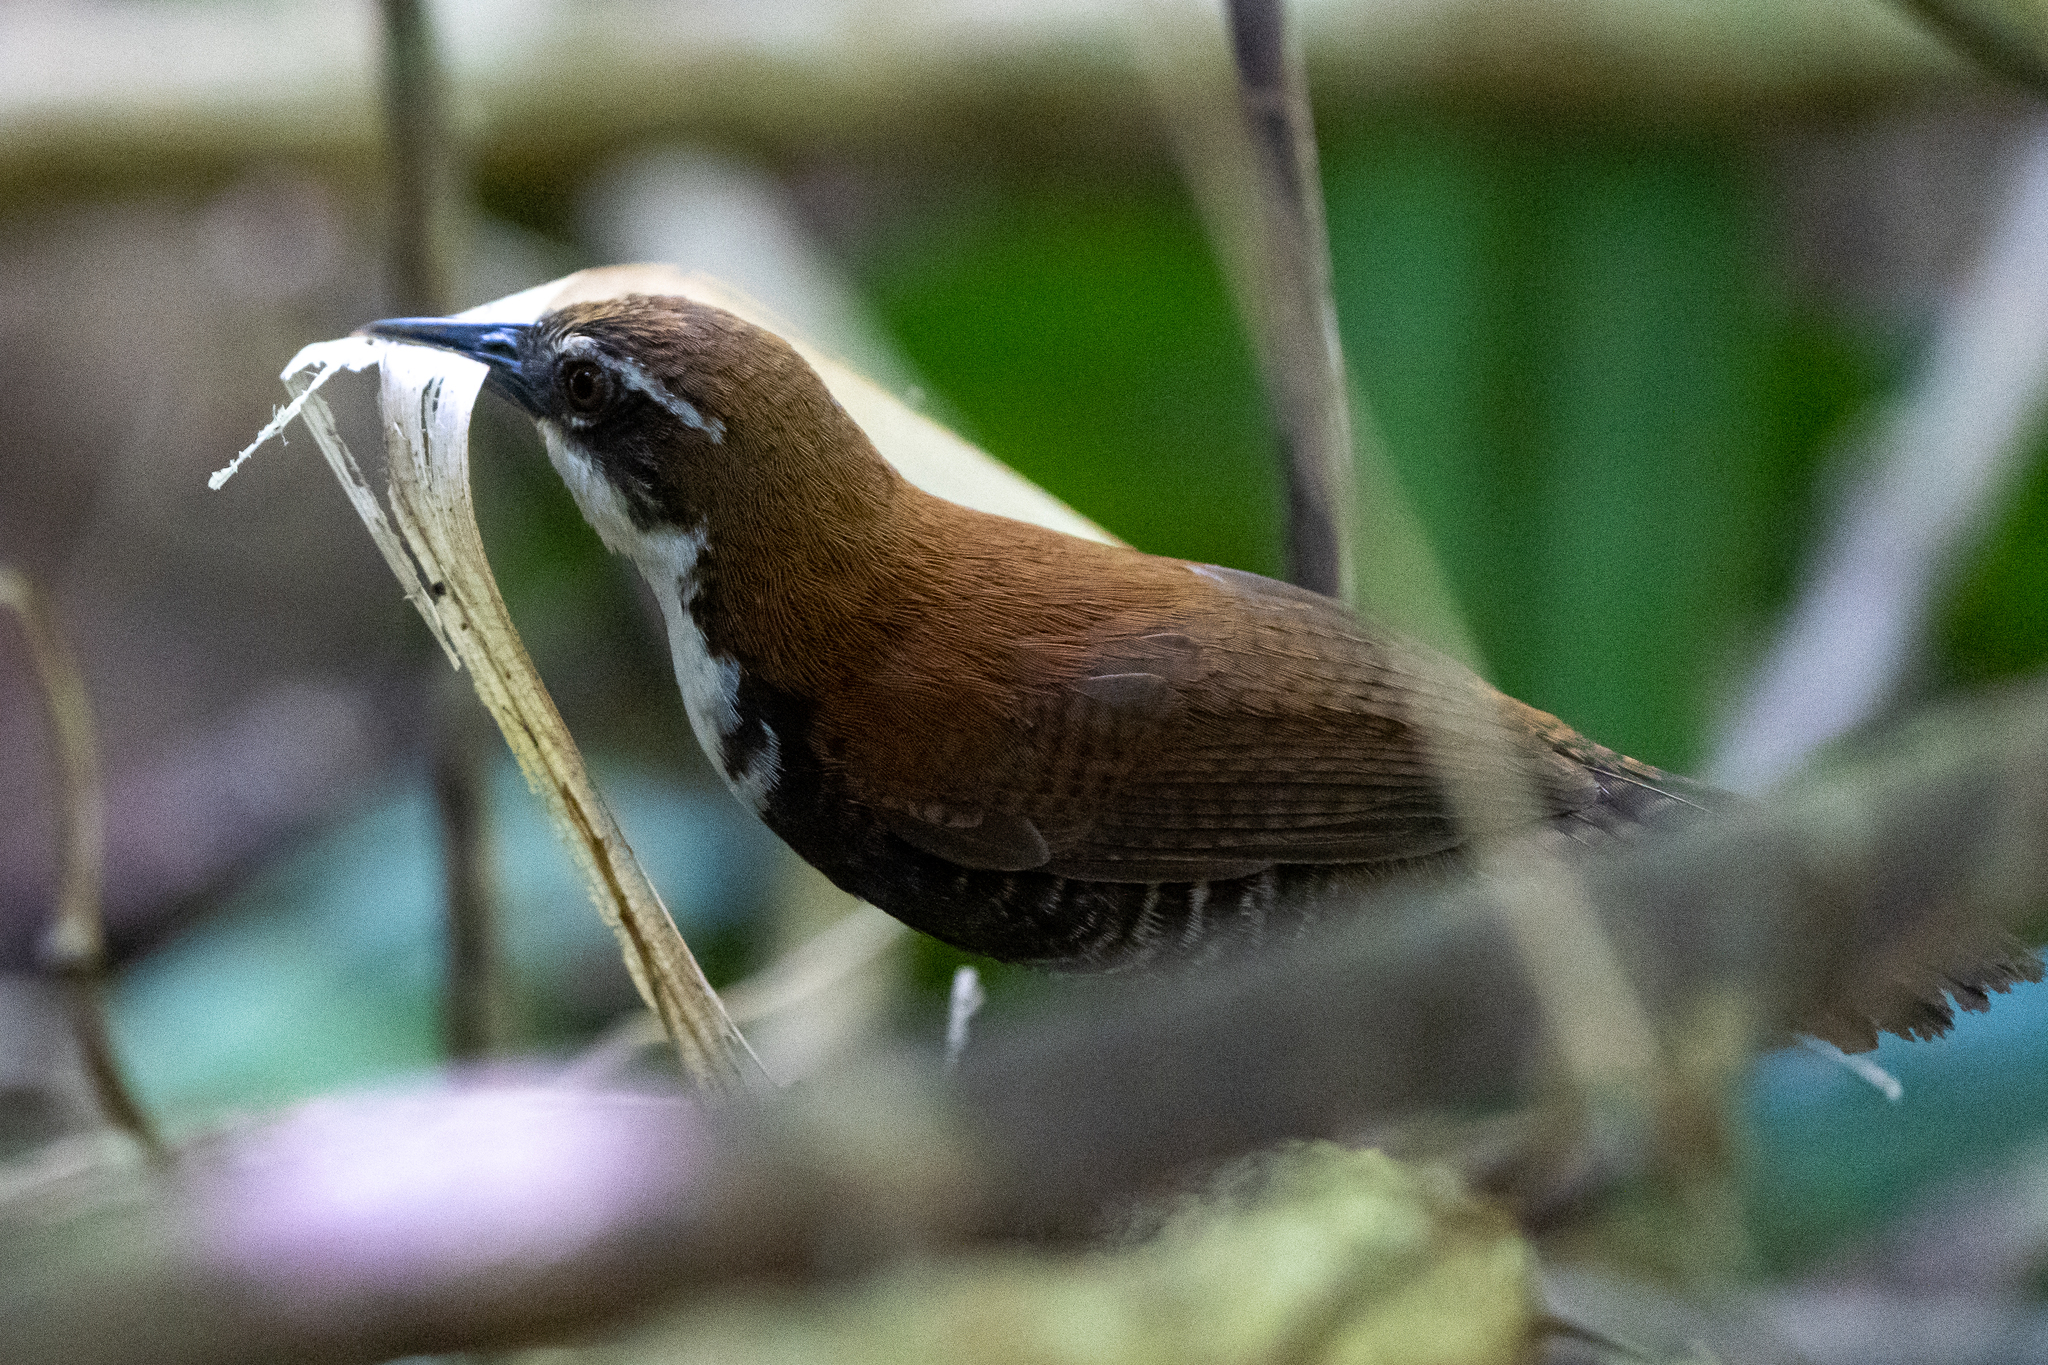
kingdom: Animalia
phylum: Chordata
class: Aves
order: Passeriformes
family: Troglodytidae
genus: Pheugopedius
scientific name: Pheugopedius fasciatoventris
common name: Black-bellied wren
